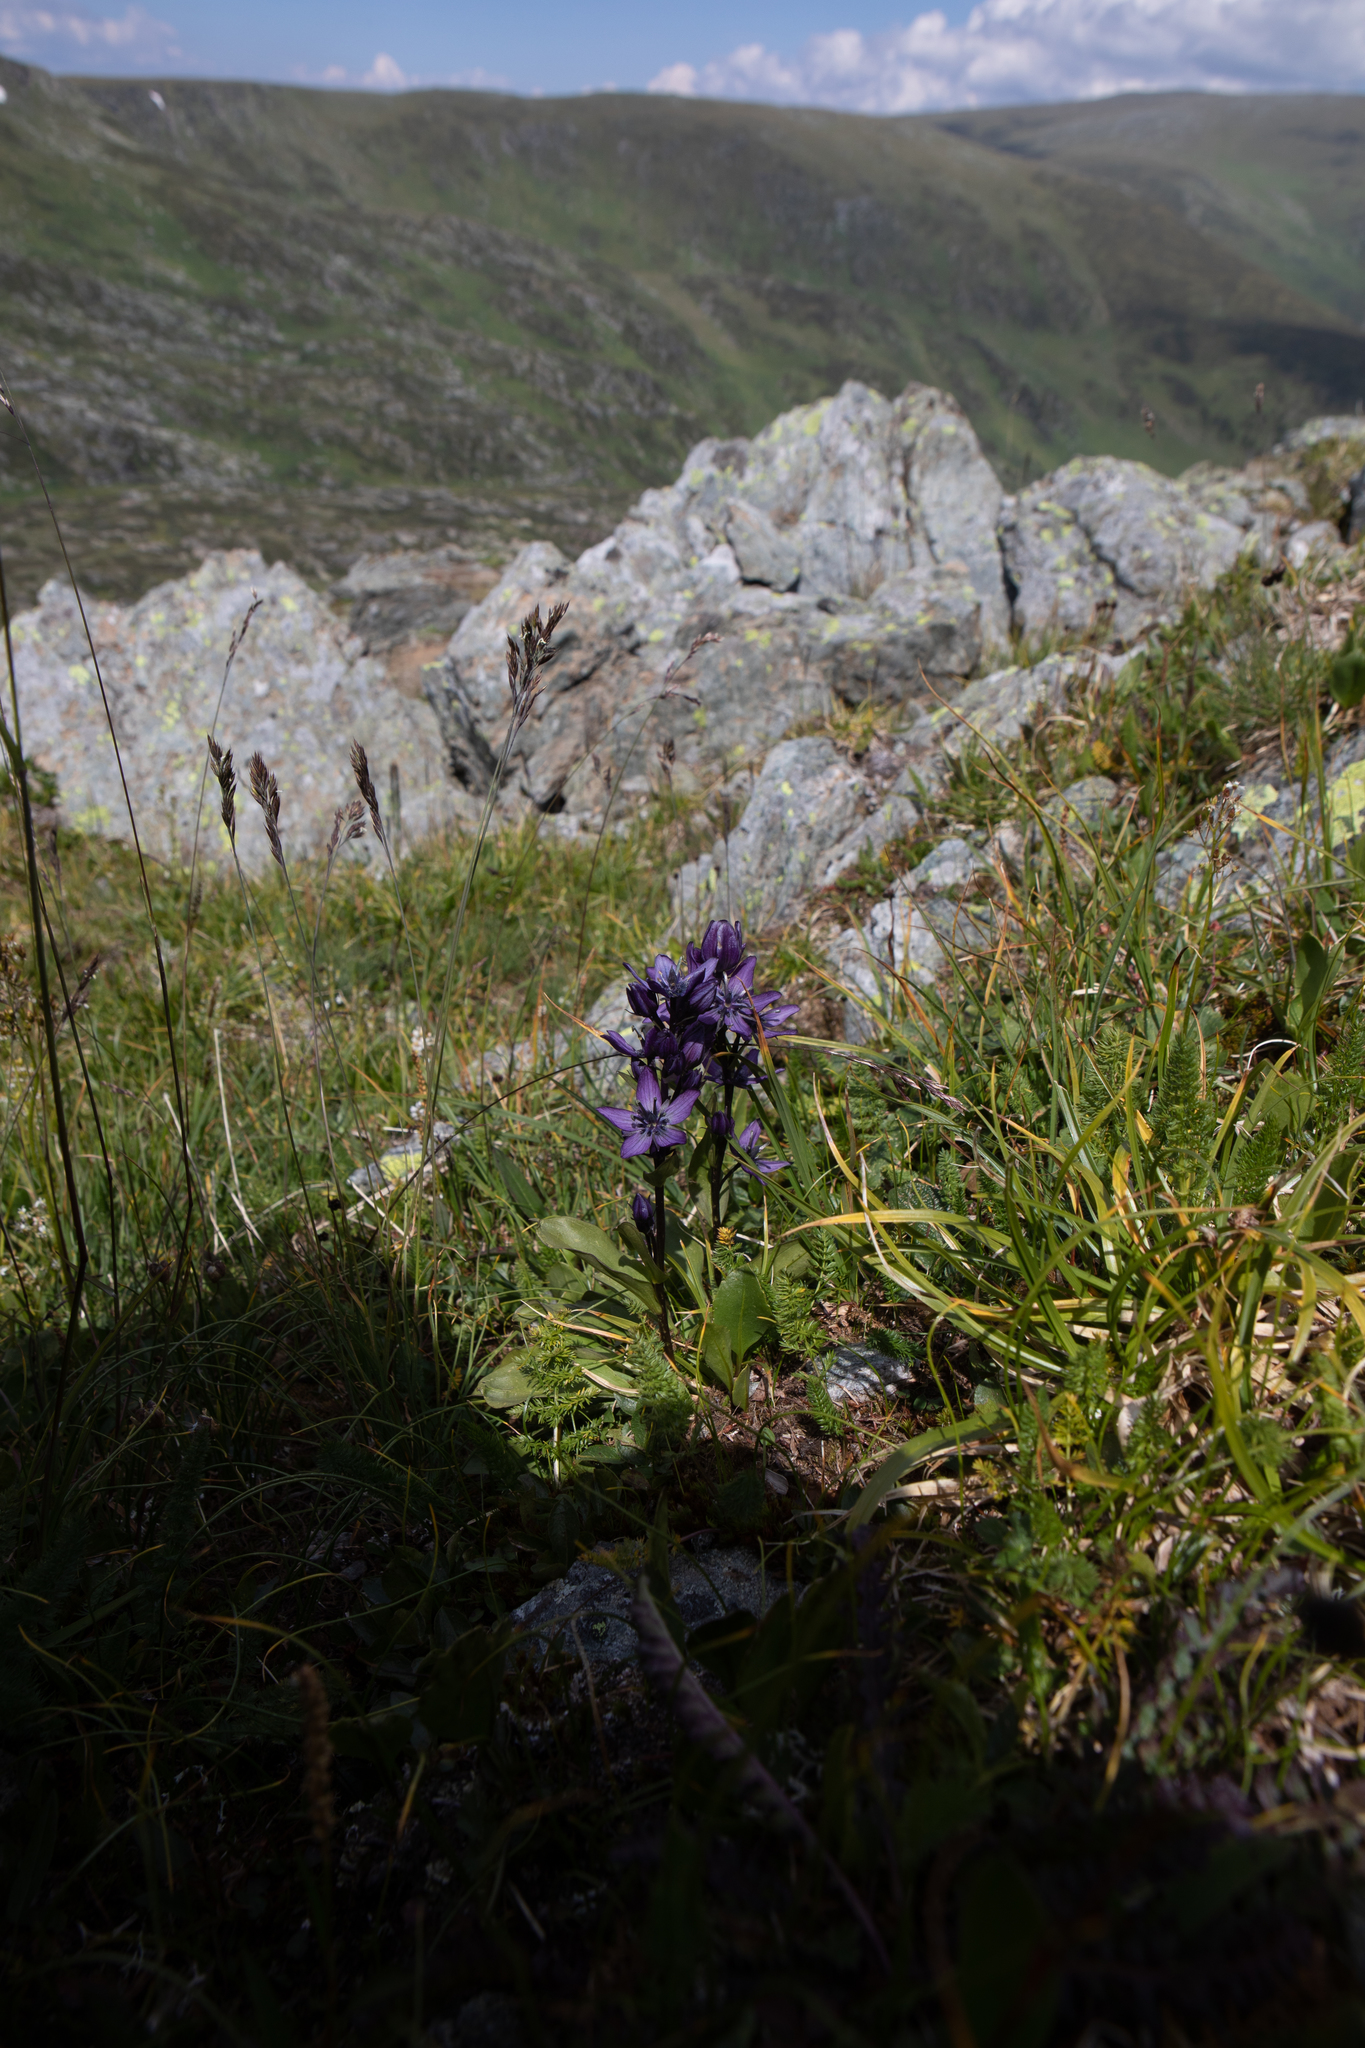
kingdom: Plantae
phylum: Tracheophyta
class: Magnoliopsida
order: Gentianales
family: Gentianaceae
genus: Swertia
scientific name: Swertia obtusa
